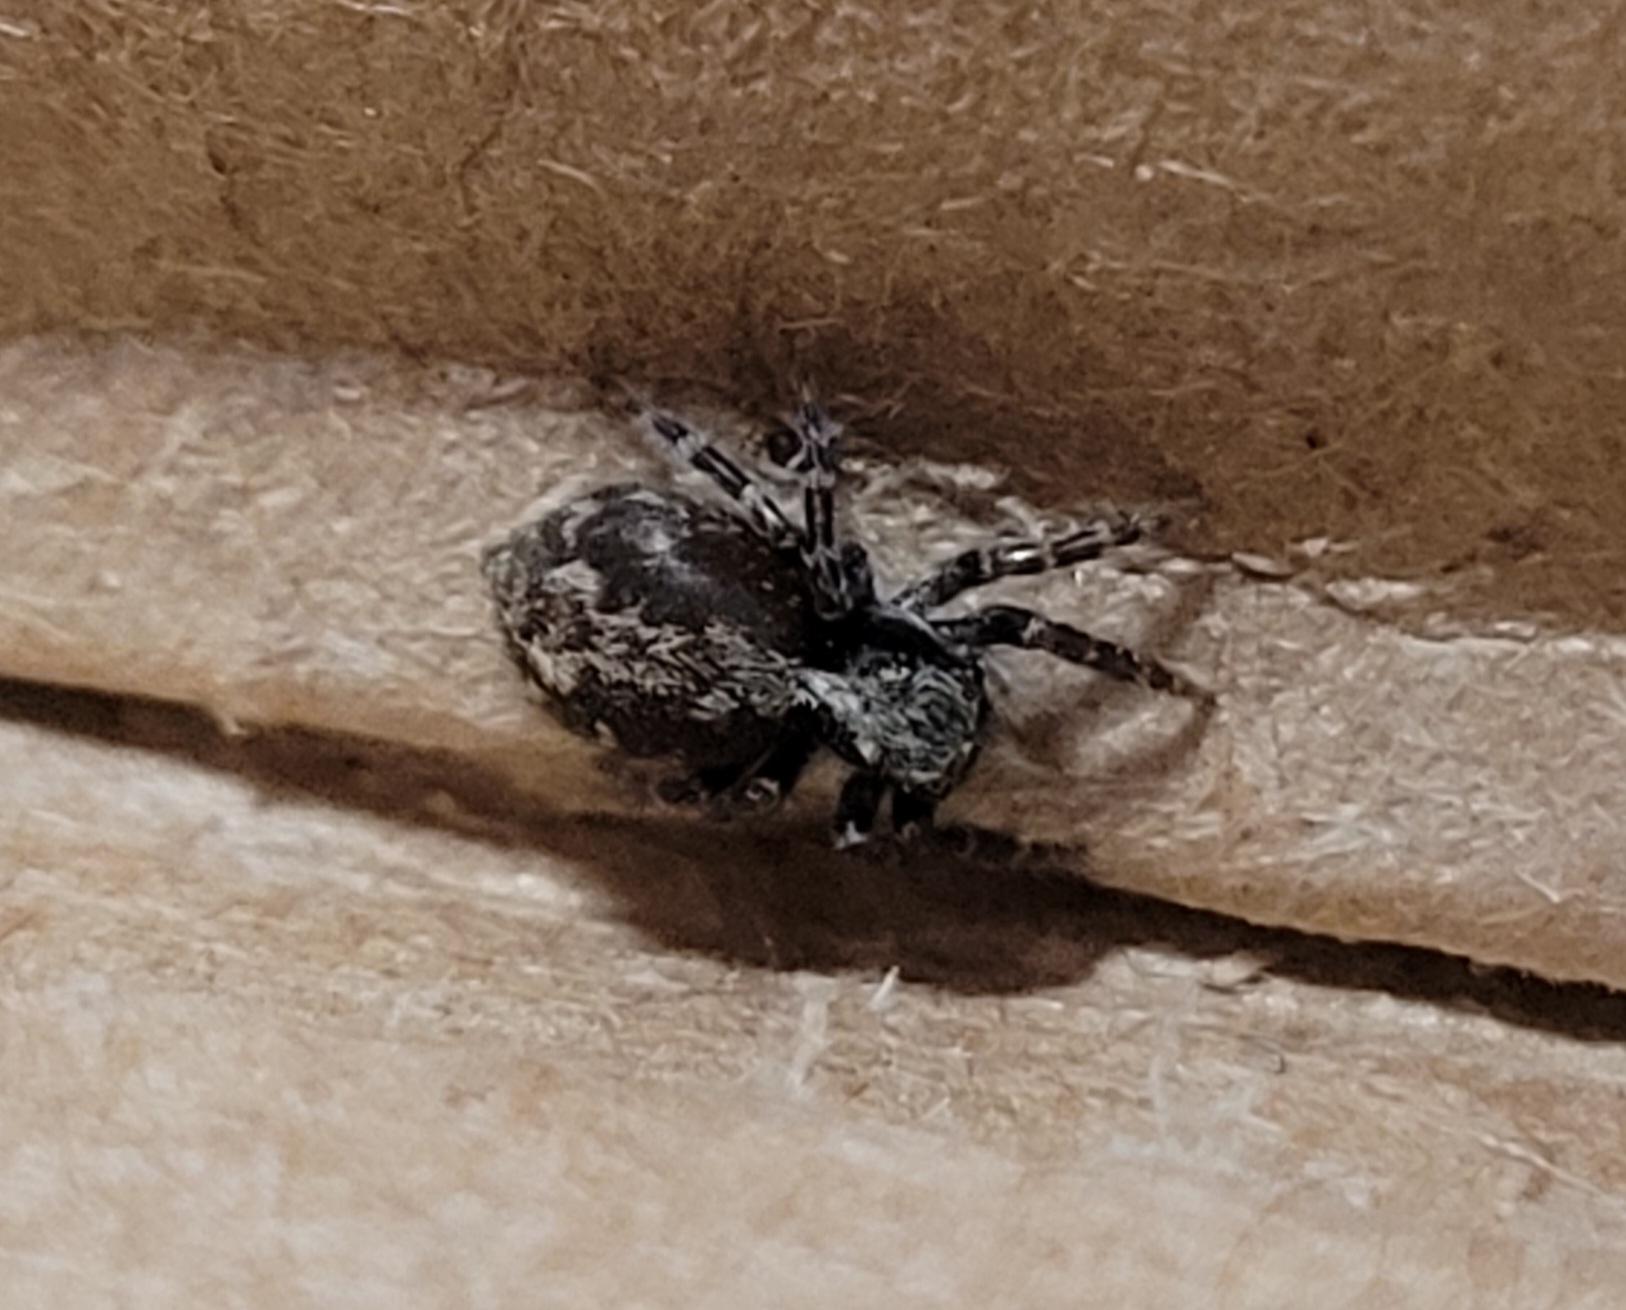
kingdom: Animalia
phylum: Arthropoda
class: Arachnida
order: Araneae
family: Salticidae
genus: Pseudeuophrys
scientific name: Pseudeuophrys lanigera
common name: Jumping spider
